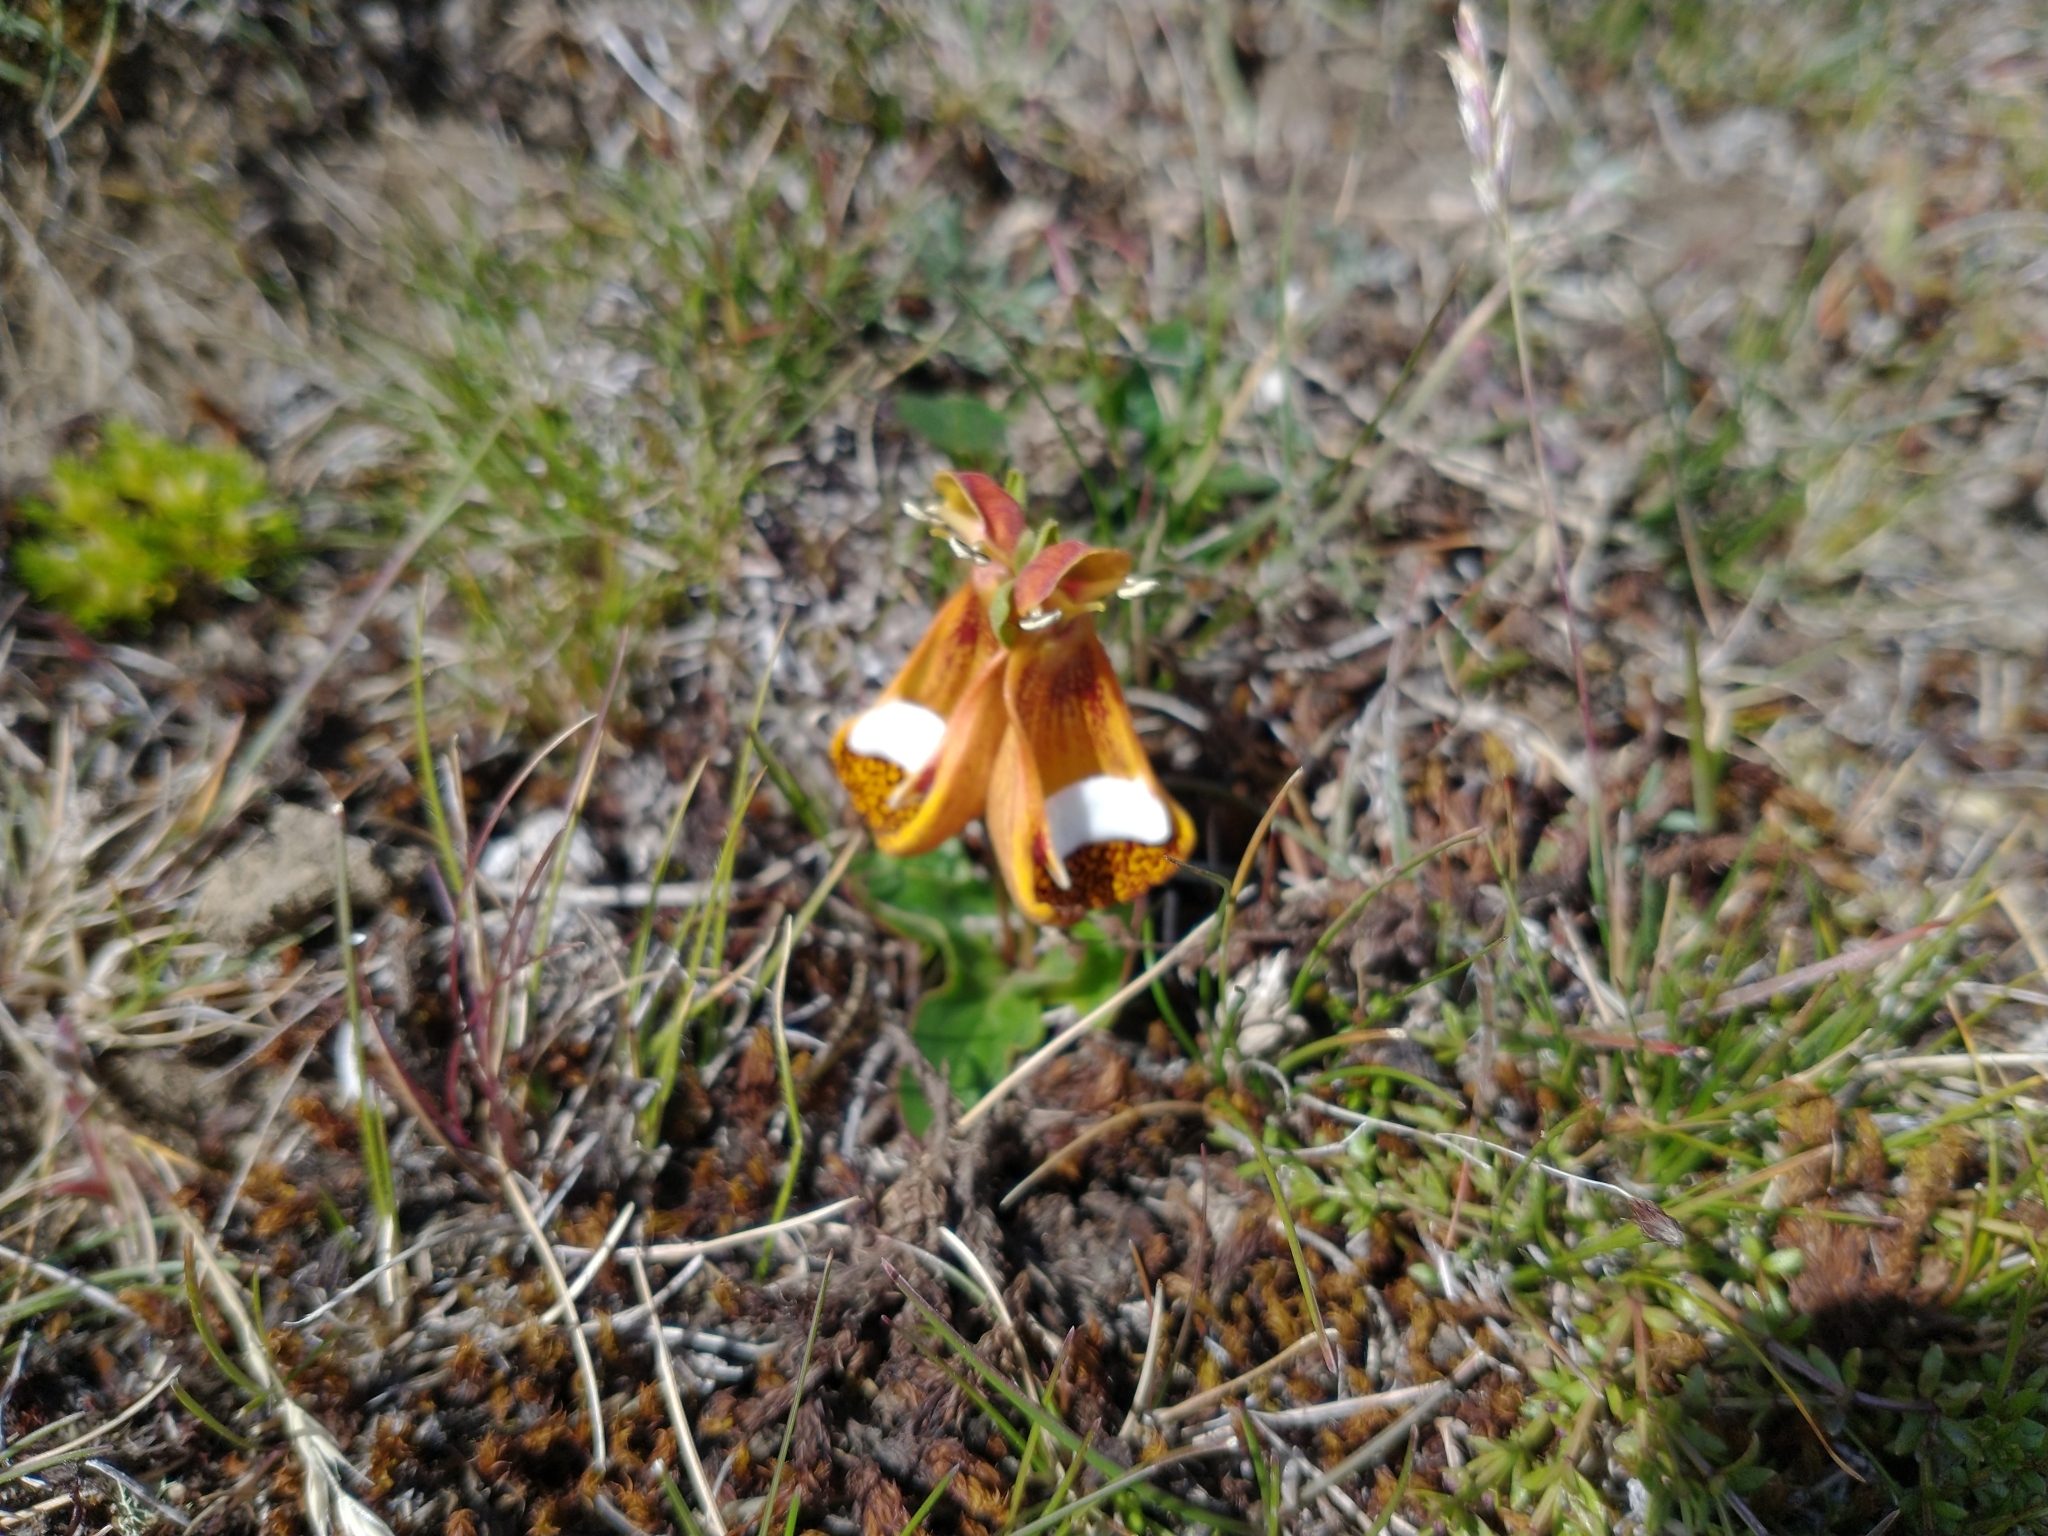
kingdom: Plantae
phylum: Tracheophyta
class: Magnoliopsida
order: Lamiales
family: Calceolariaceae
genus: Calceolaria
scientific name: Calceolaria uniflora
